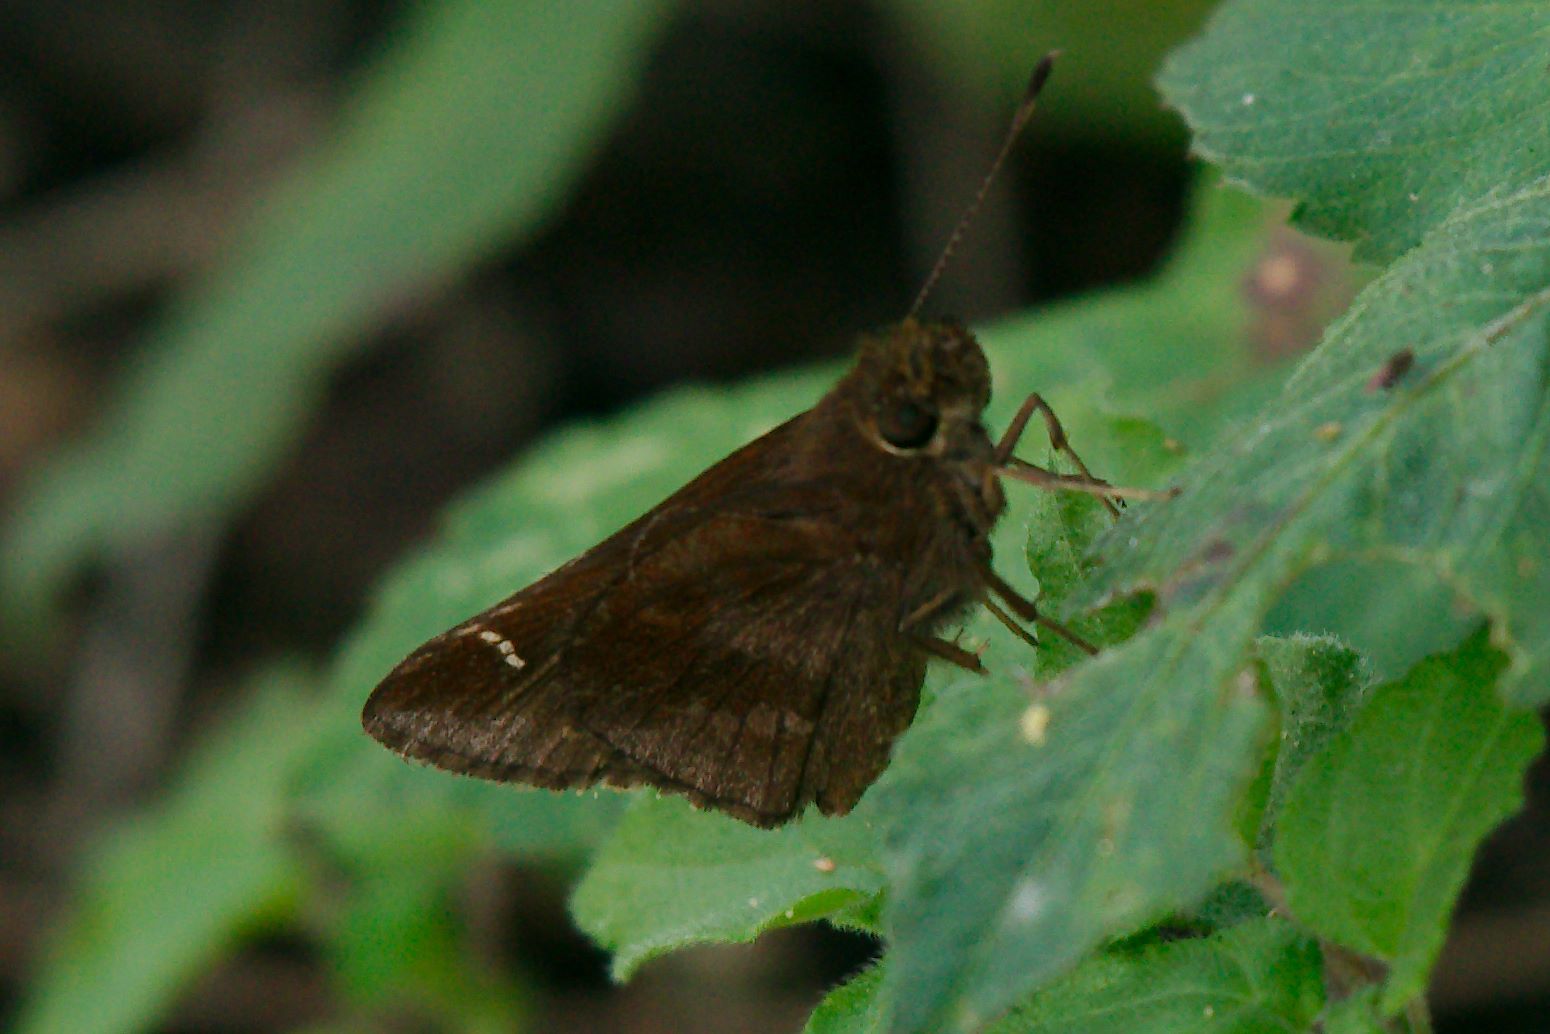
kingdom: Animalia
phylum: Arthropoda
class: Insecta
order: Lepidoptera
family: Hesperiidae
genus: Lerema
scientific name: Lerema accius
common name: Clouded skipper
